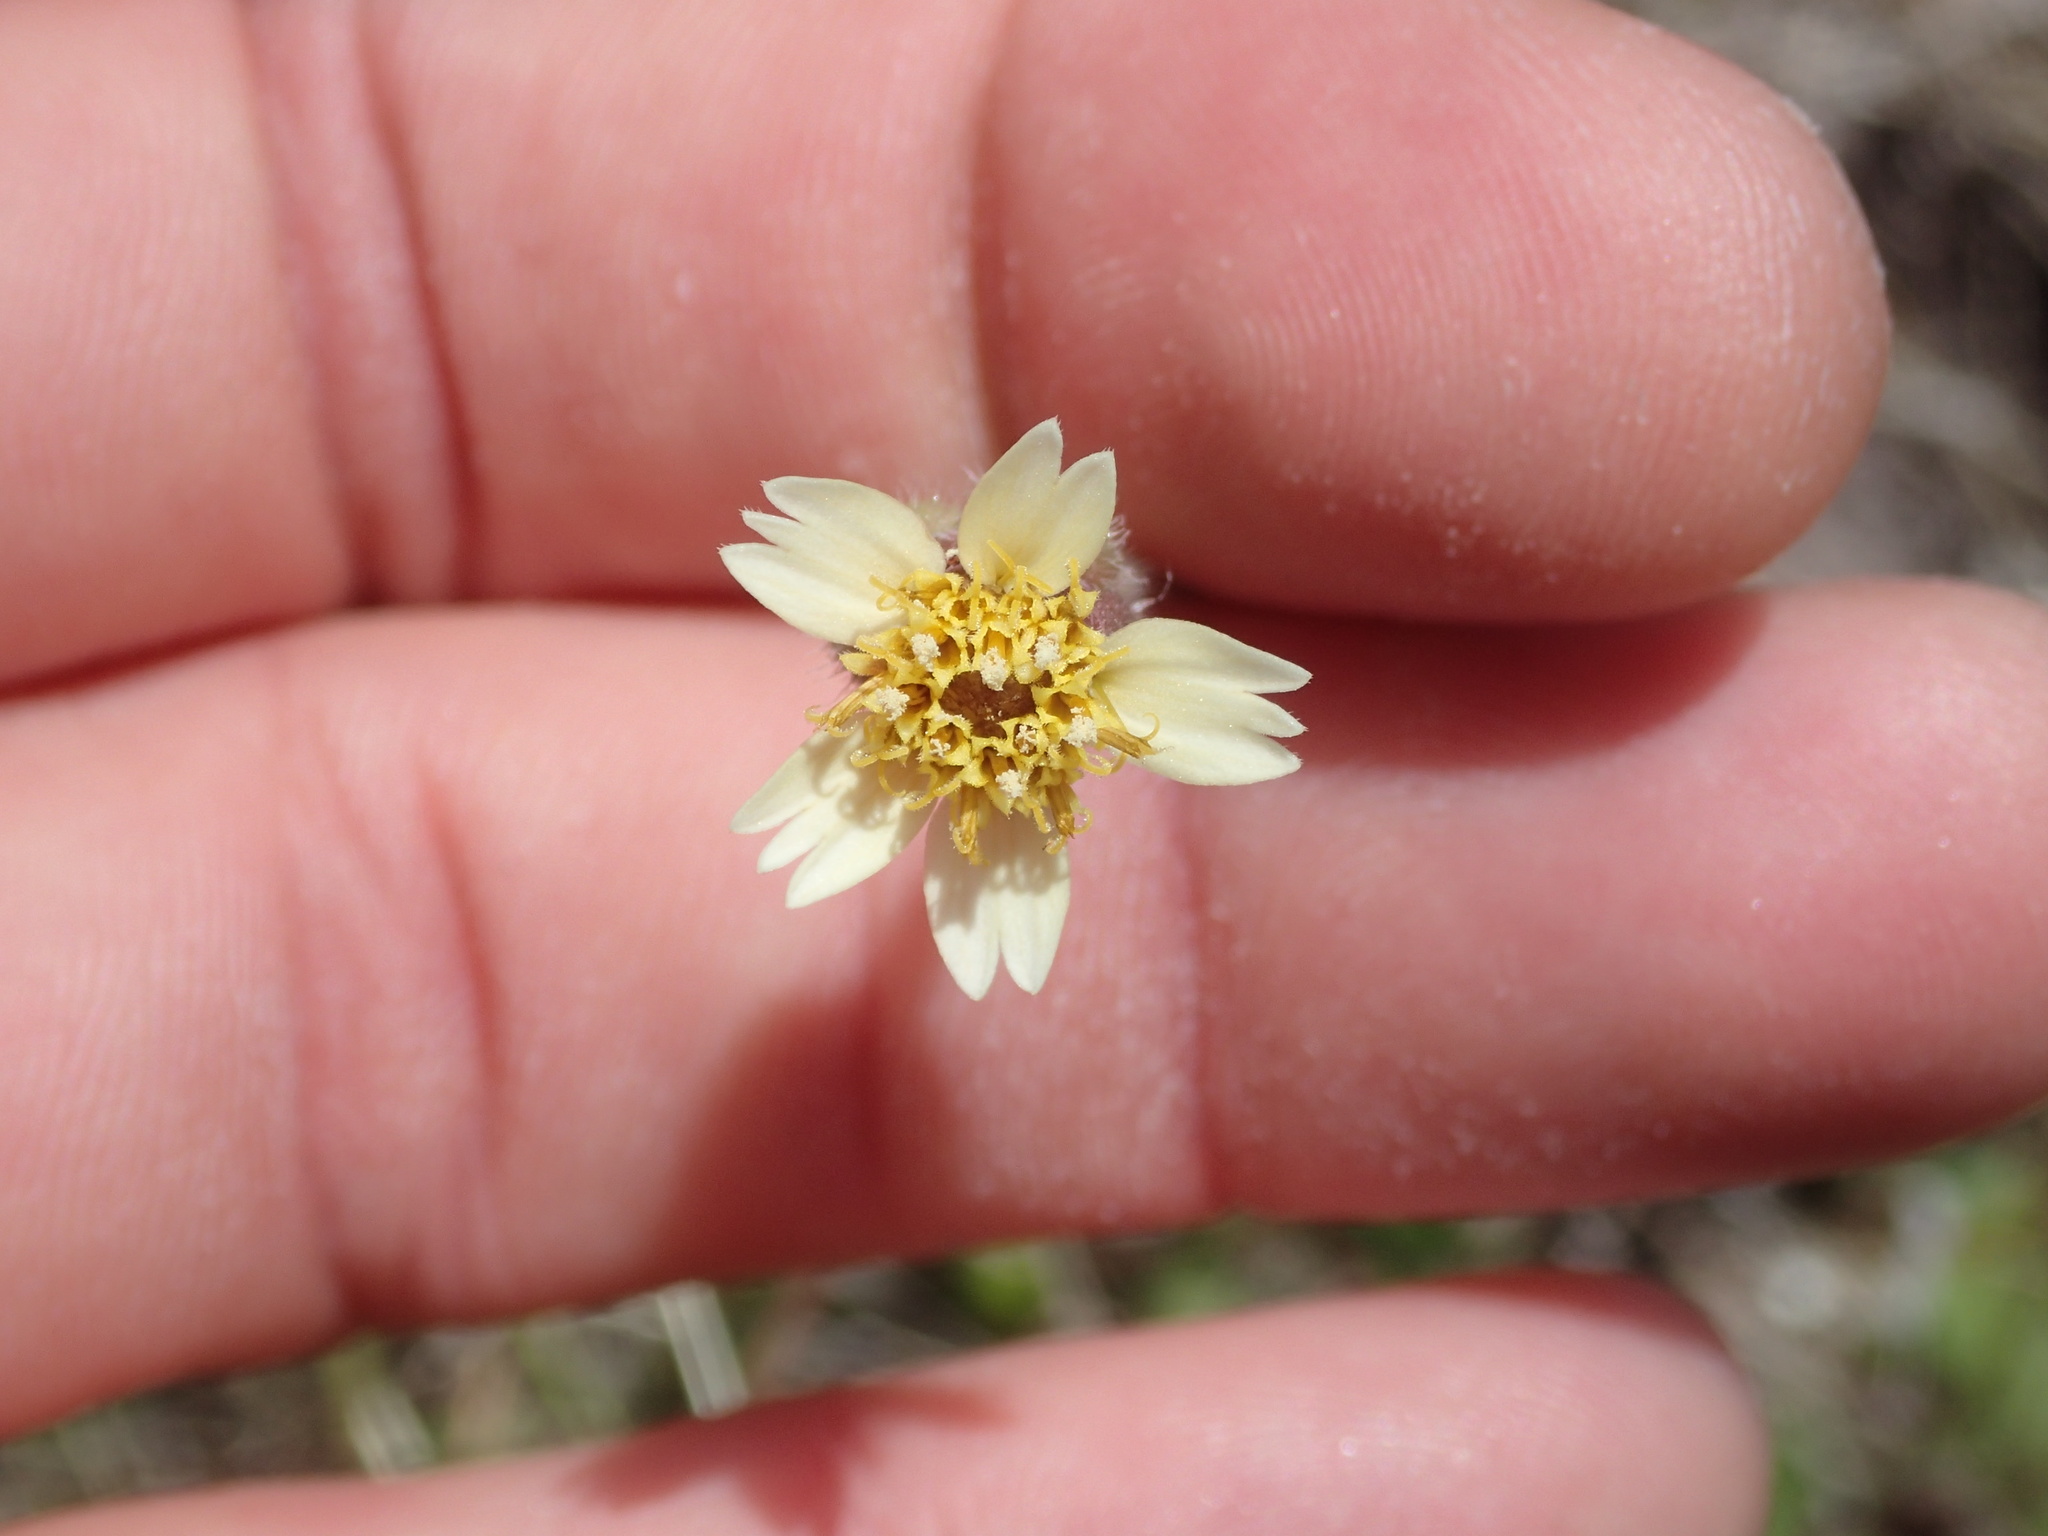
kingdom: Plantae
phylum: Tracheophyta
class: Magnoliopsida
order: Asterales
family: Asteraceae
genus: Tridax
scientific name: Tridax procumbens
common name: Coatbuttons
